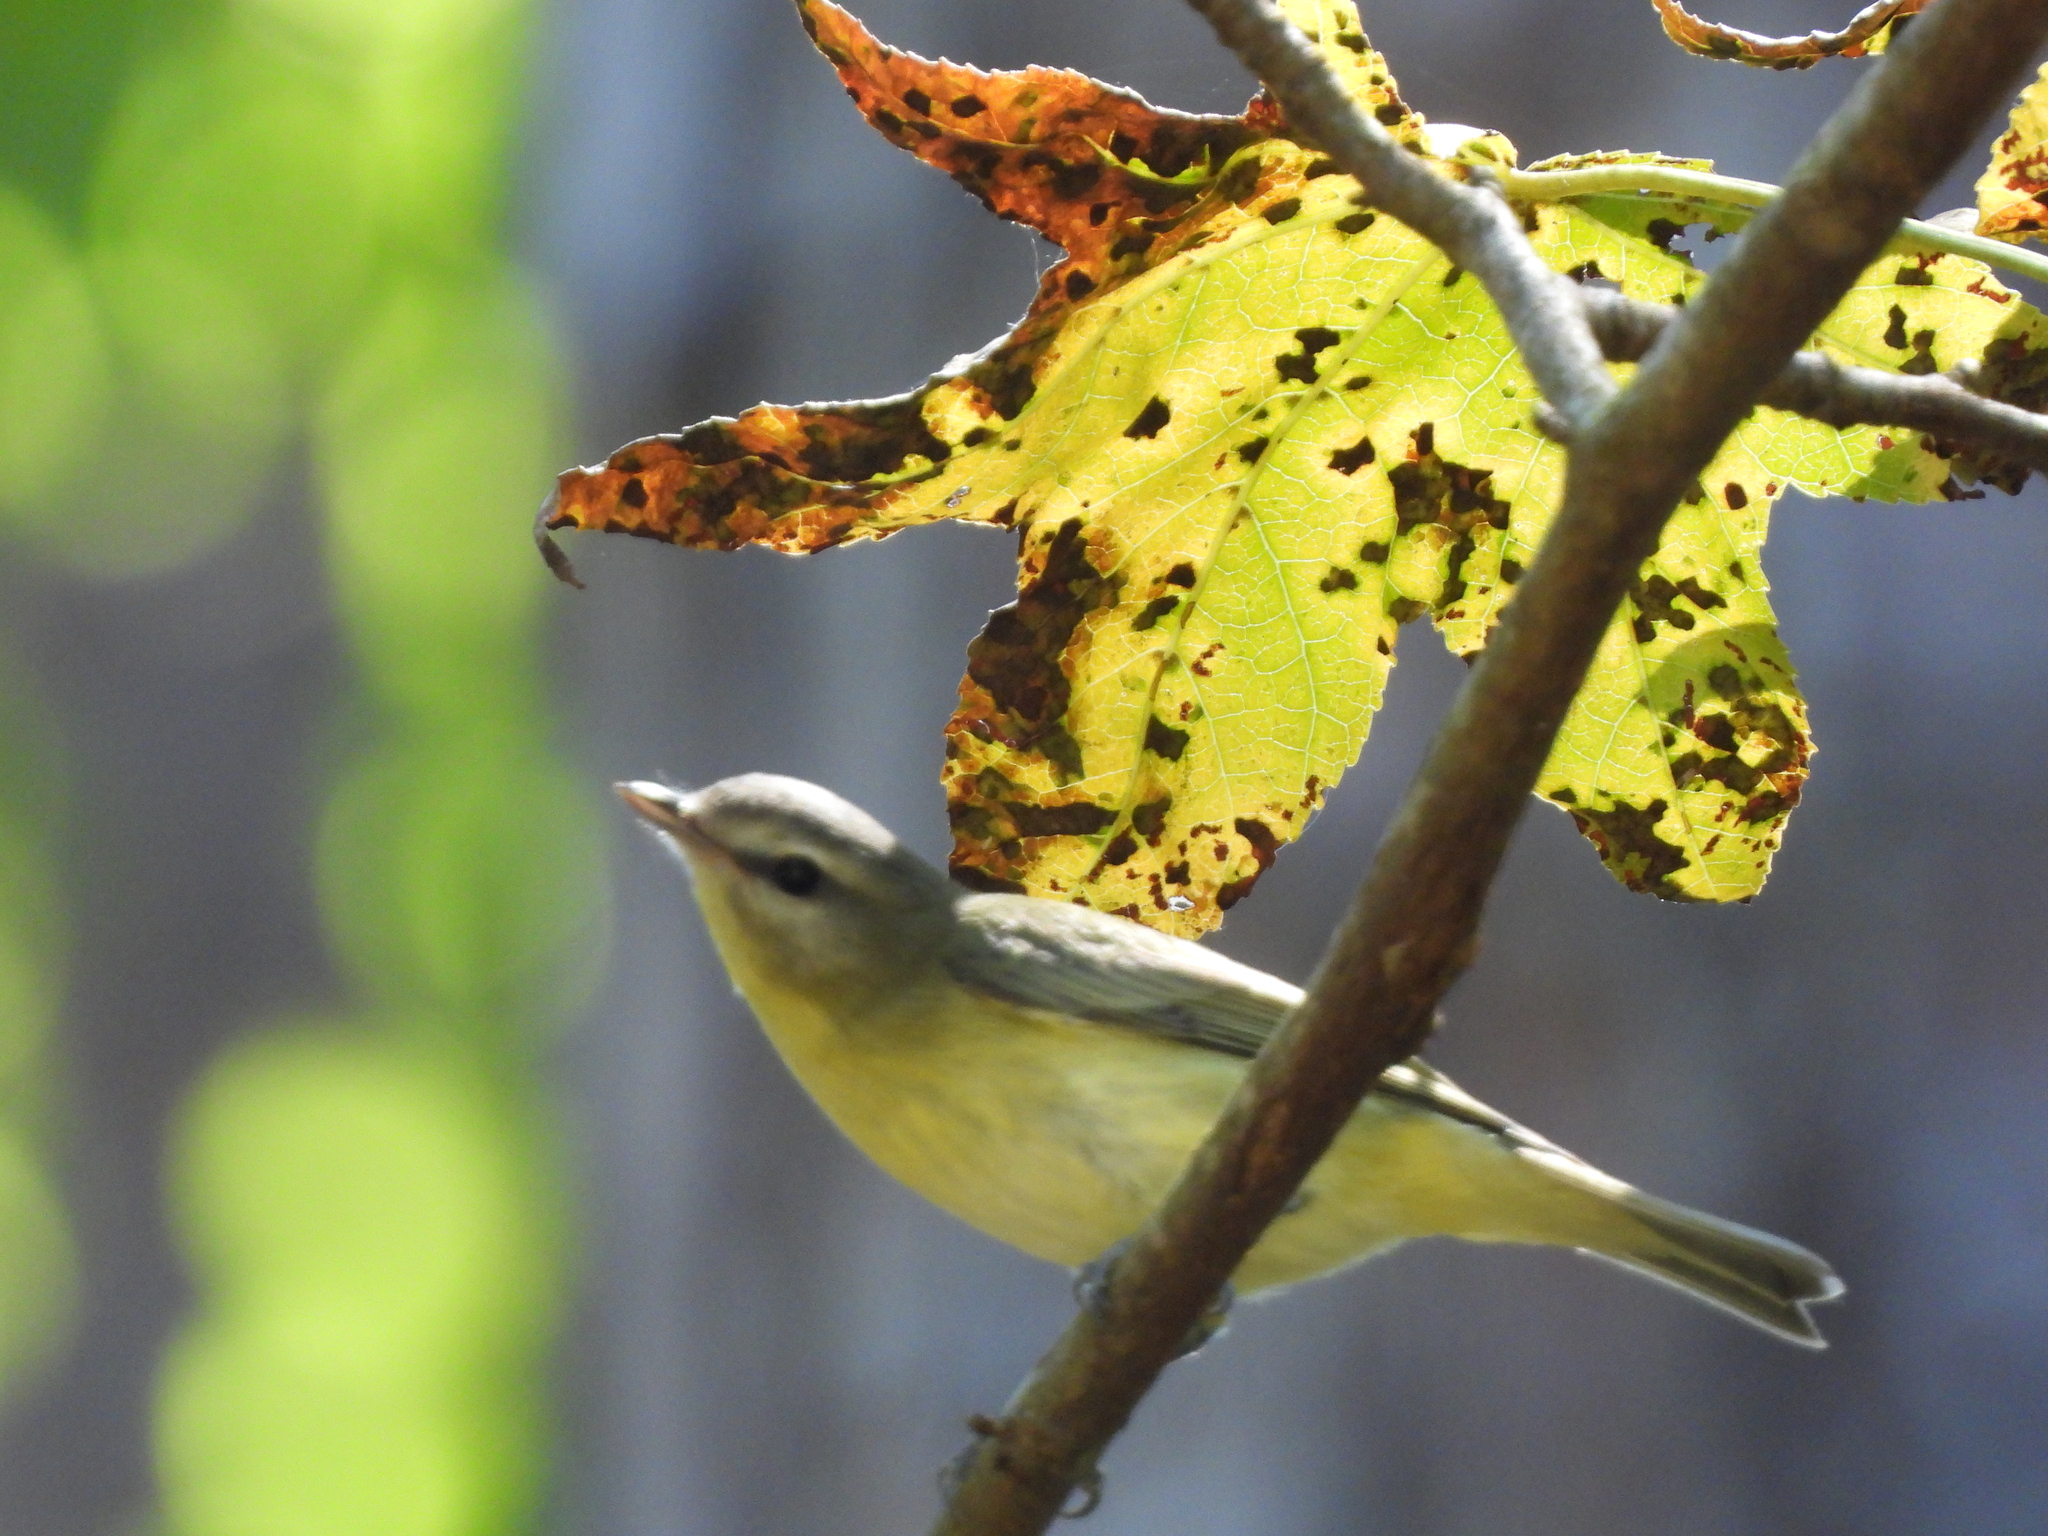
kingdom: Animalia
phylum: Chordata
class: Aves
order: Passeriformes
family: Vireonidae
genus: Vireo
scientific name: Vireo philadelphicus
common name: Philadelphia vireo
